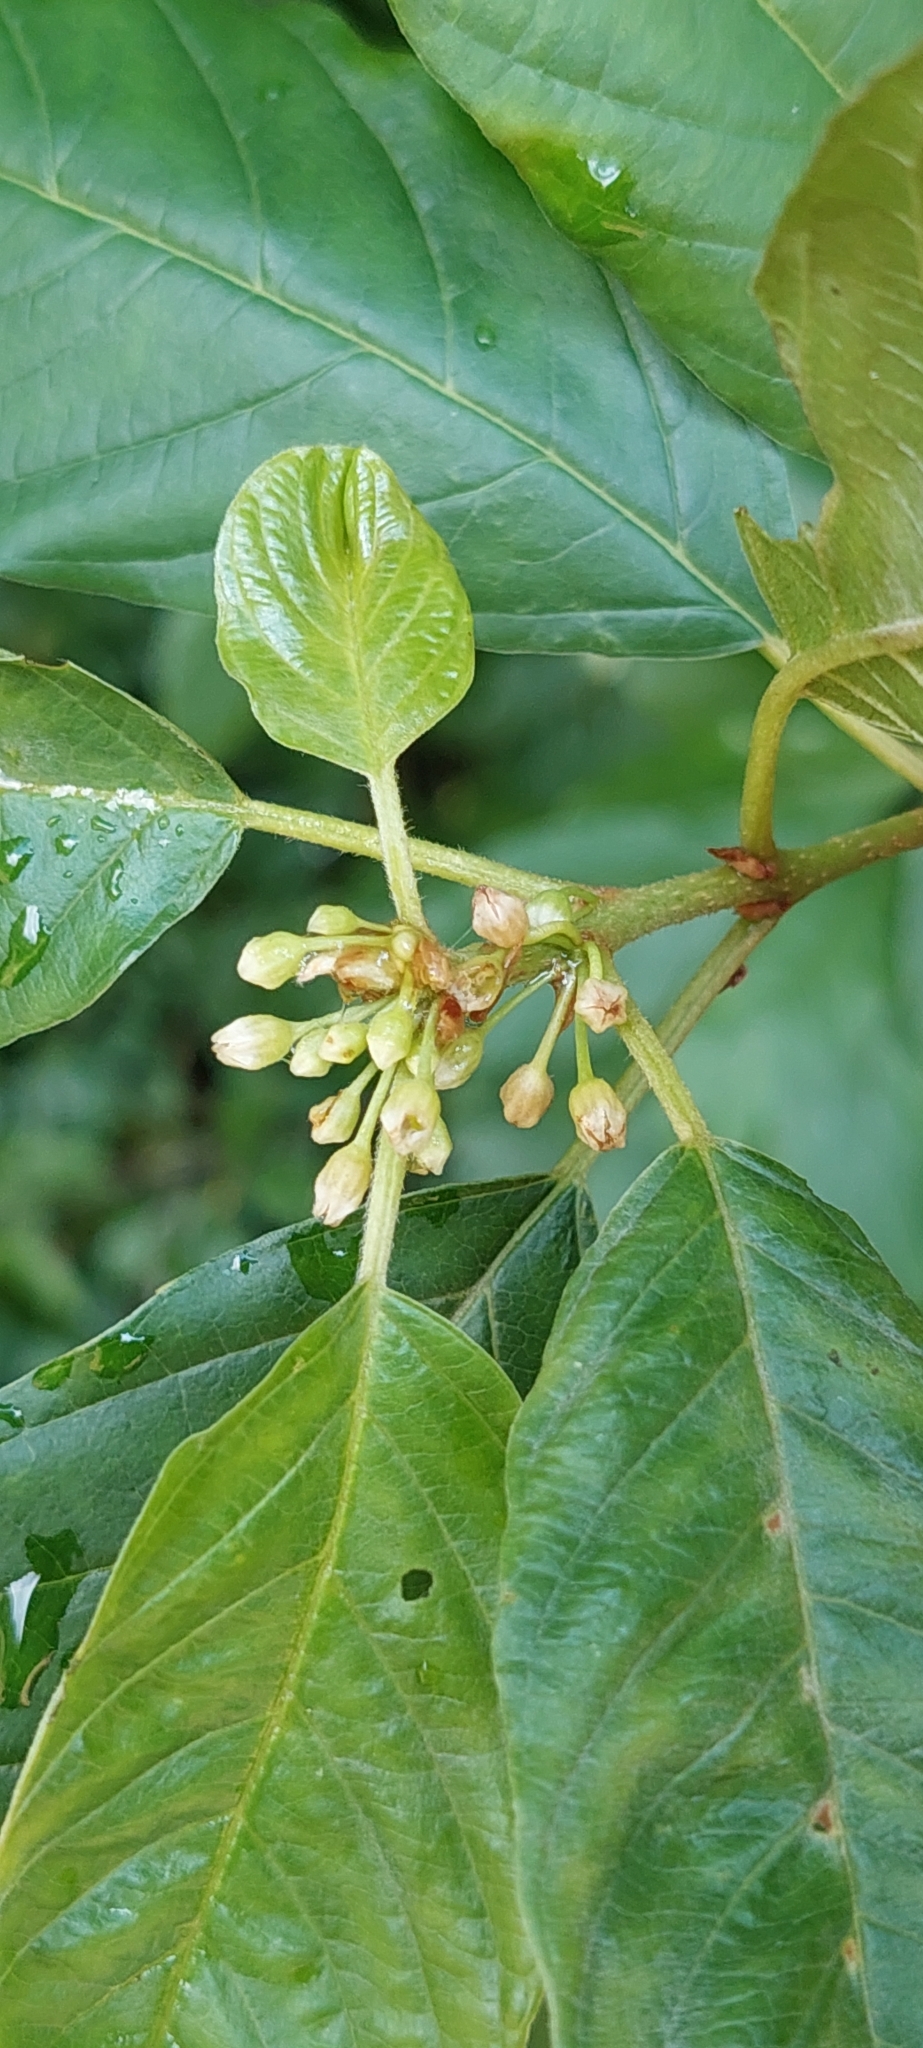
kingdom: Plantae
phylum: Tracheophyta
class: Magnoliopsida
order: Rosales
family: Rhamnaceae
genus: Frangula
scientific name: Frangula alnus
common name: Alder buckthorn
